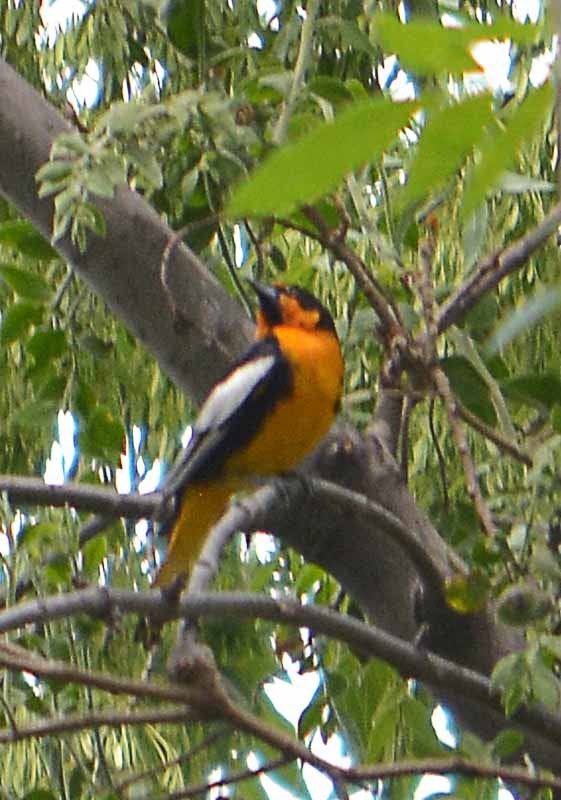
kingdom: Animalia
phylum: Chordata
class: Aves
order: Passeriformes
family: Icteridae
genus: Icterus
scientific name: Icterus abeillei
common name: Black-backed oriole
